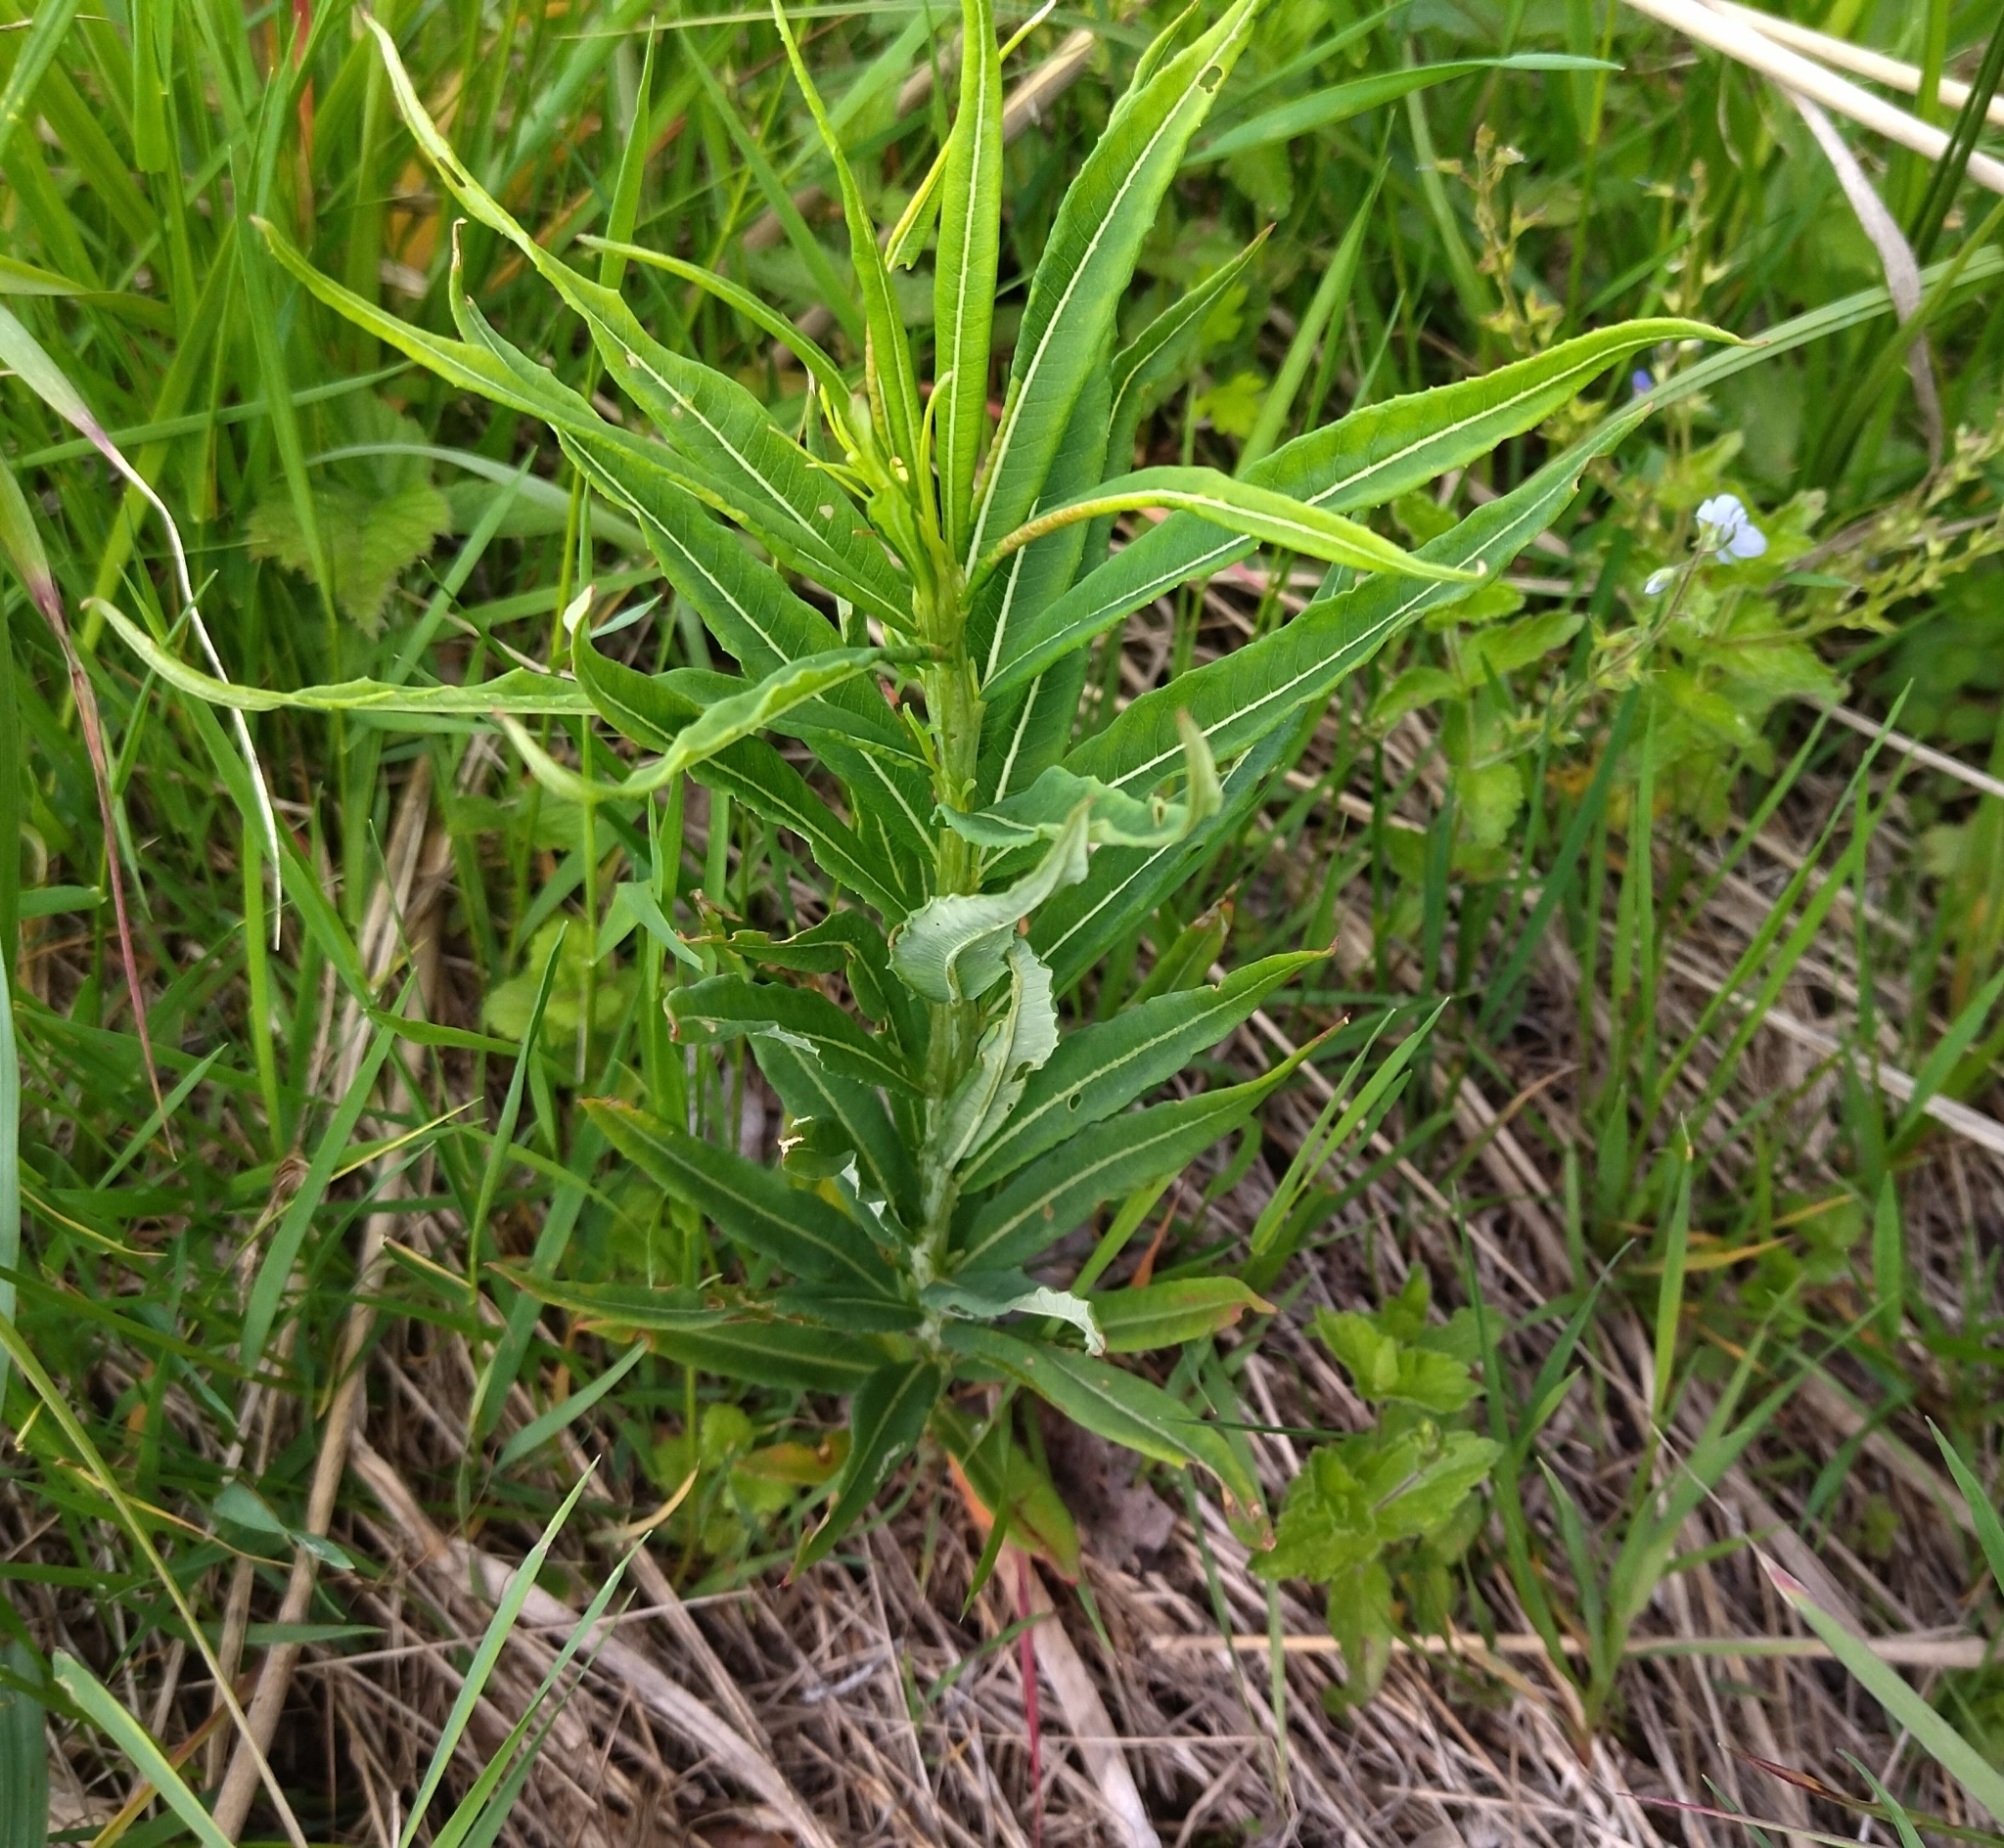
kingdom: Plantae
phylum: Tracheophyta
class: Magnoliopsida
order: Myrtales
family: Onagraceae
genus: Chamaenerion
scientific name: Chamaenerion angustifolium
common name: Fireweed
